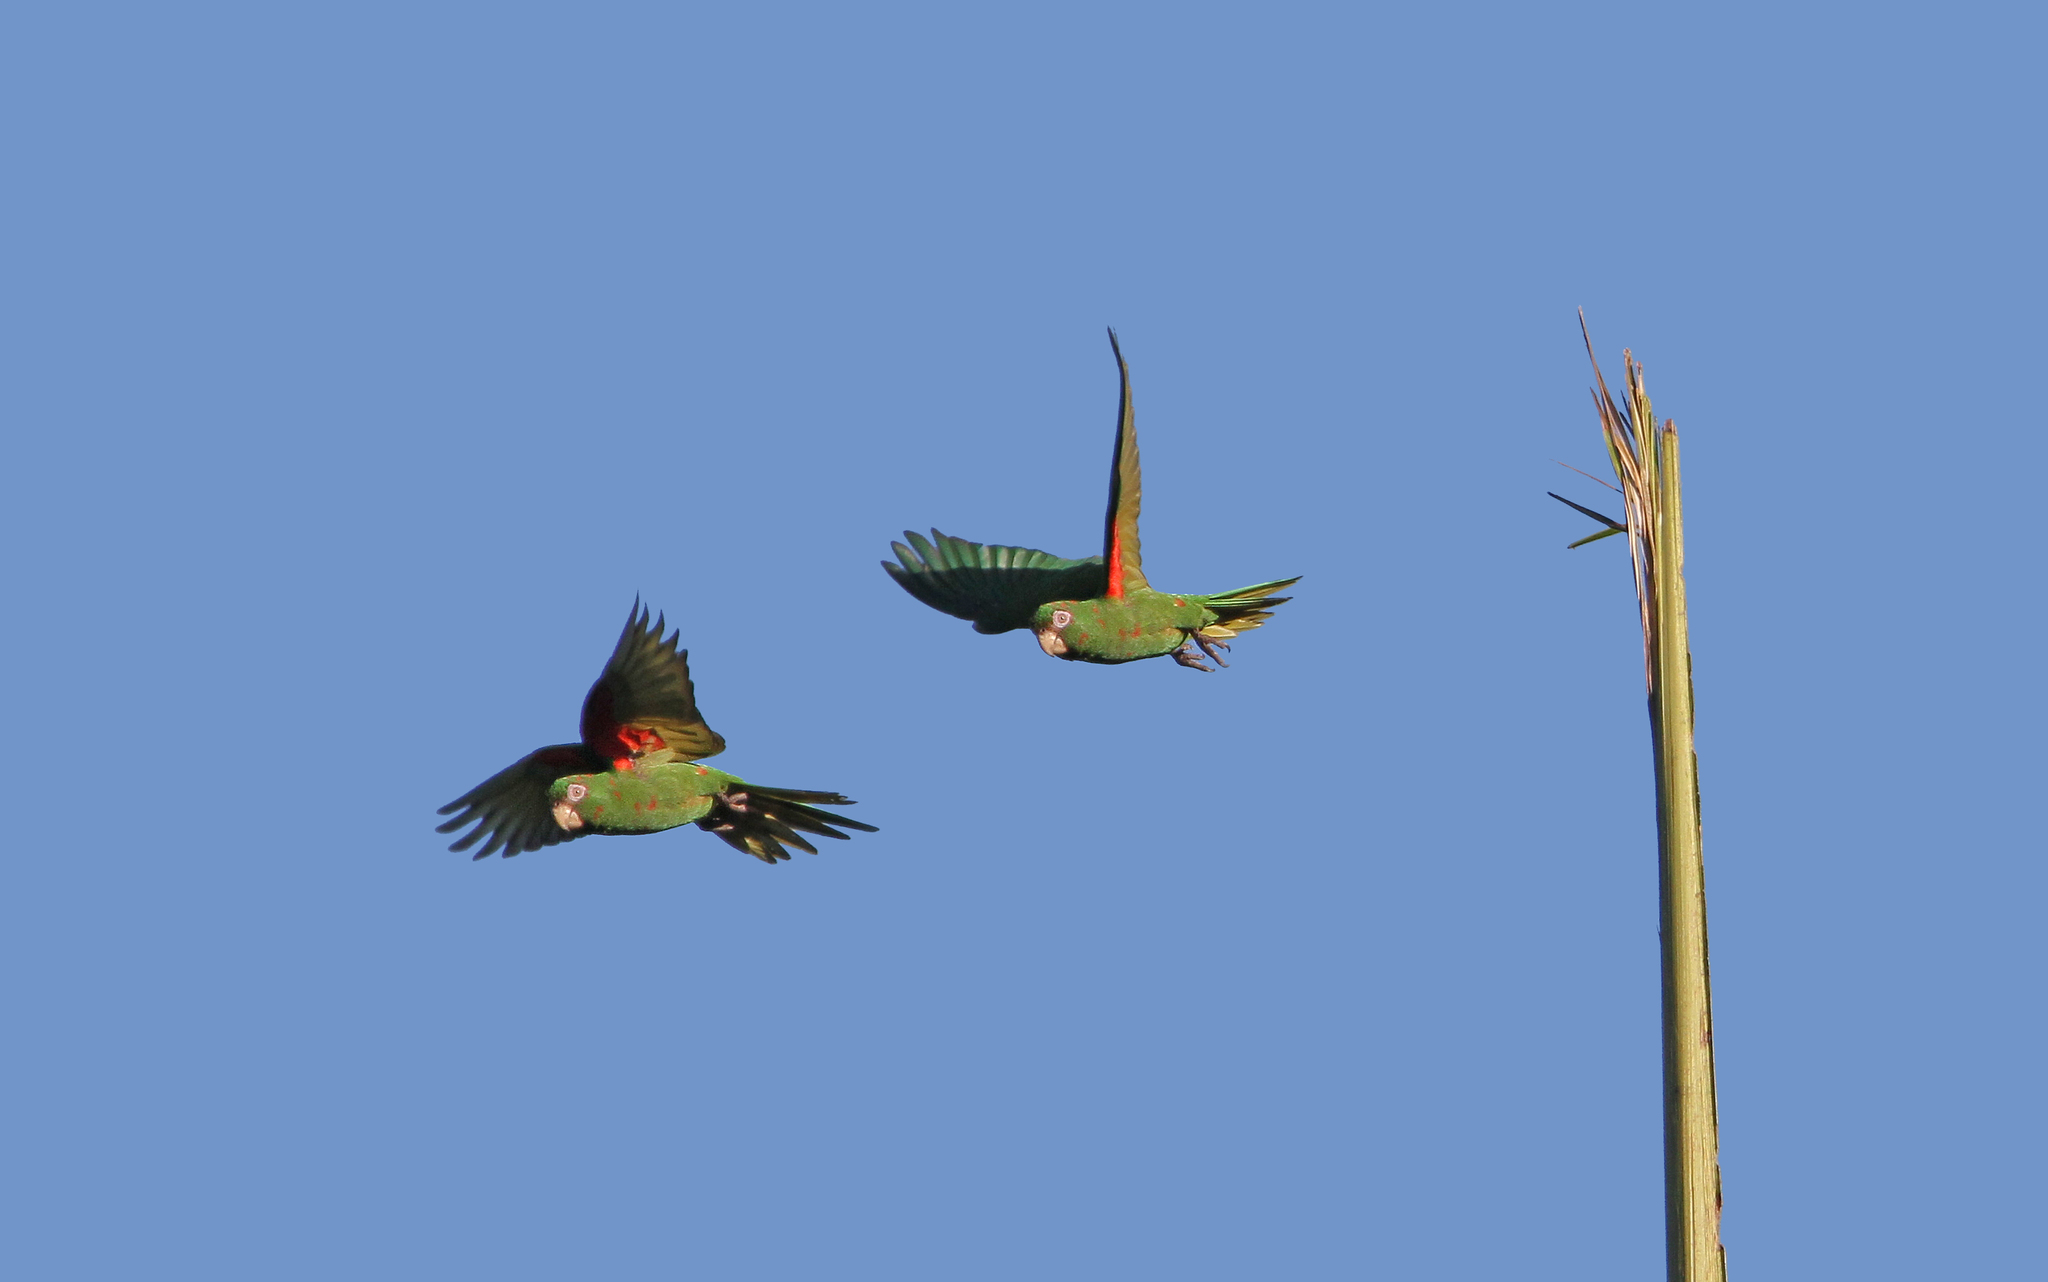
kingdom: Animalia
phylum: Chordata
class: Aves
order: Psittaciformes
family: Psittacidae
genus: Aratinga
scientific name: Aratinga euops
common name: Cuban parakeet
